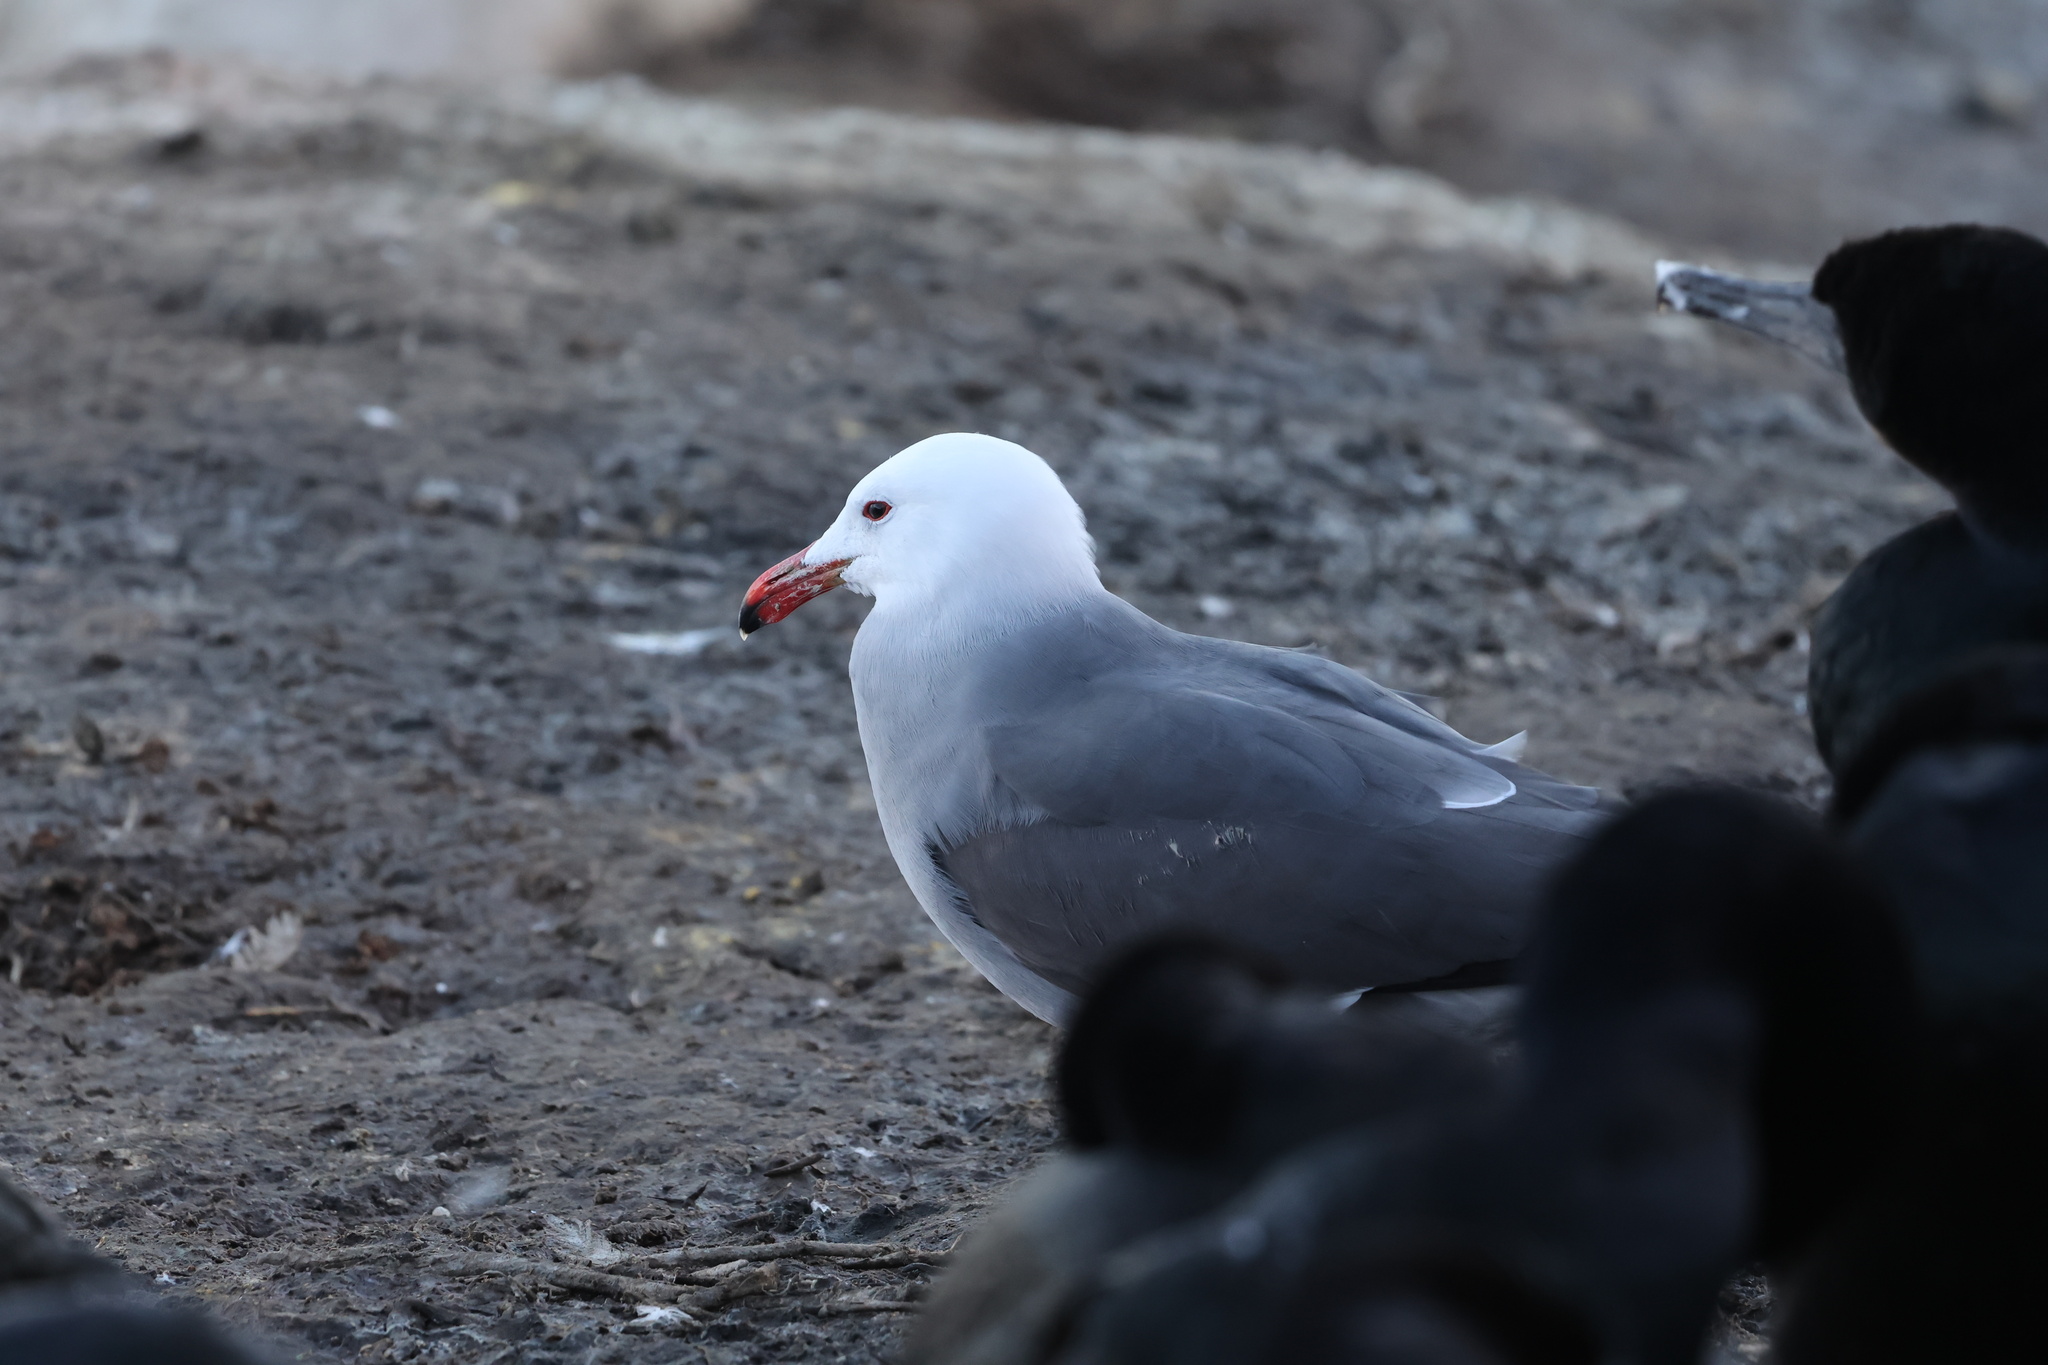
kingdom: Animalia
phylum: Chordata
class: Aves
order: Charadriiformes
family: Laridae
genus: Larus
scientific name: Larus heermanni
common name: Heermann's gull
